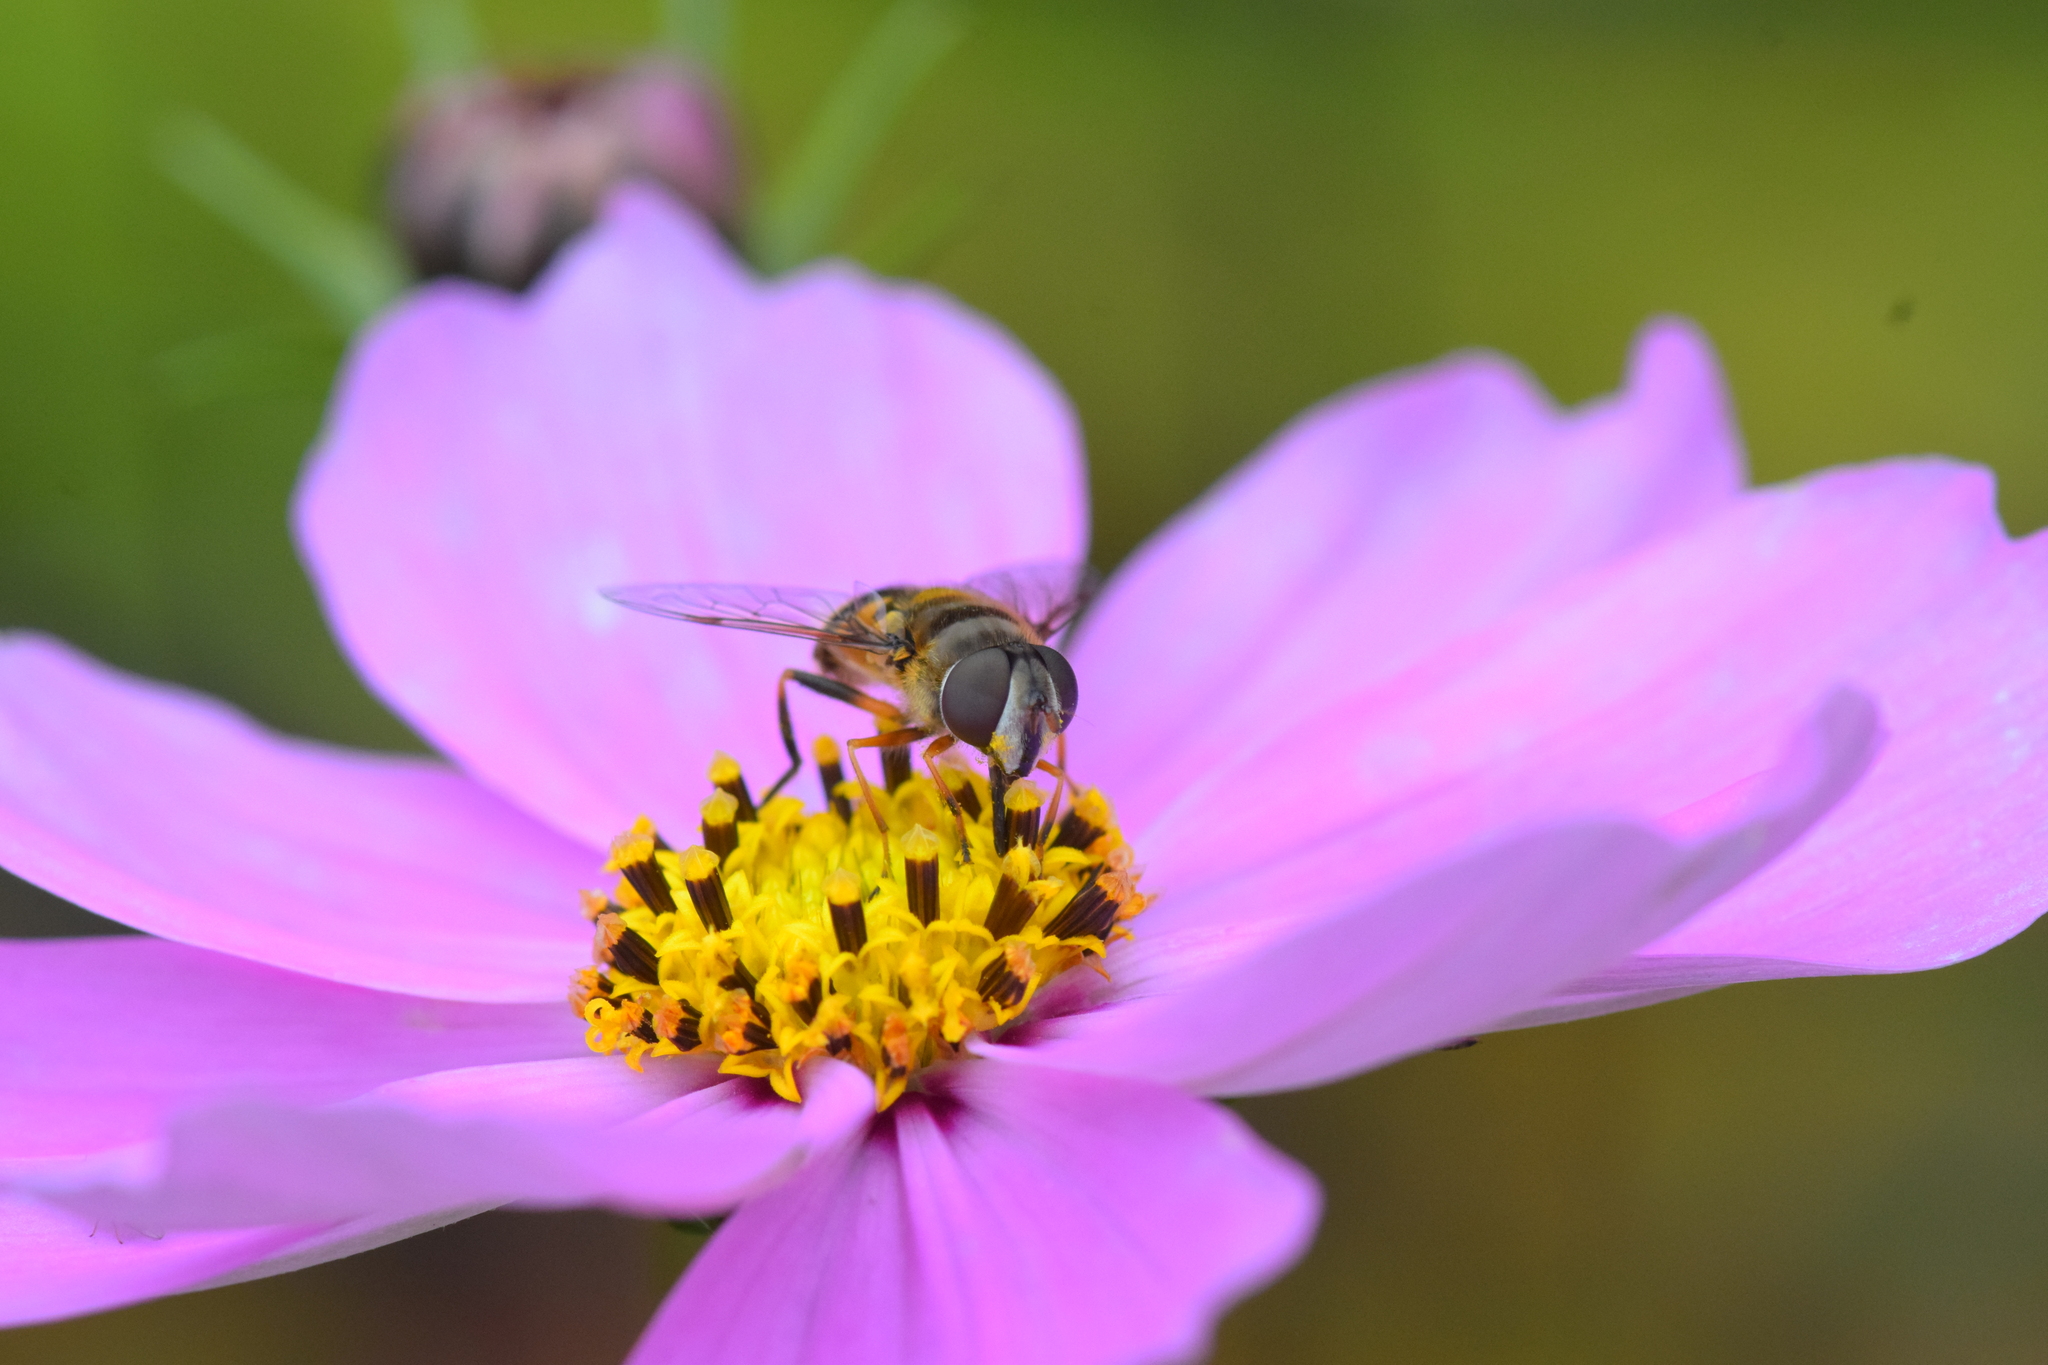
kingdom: Animalia
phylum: Arthropoda
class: Insecta
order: Diptera
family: Syrphidae
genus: Eristalis
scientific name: Eristalis transversa
